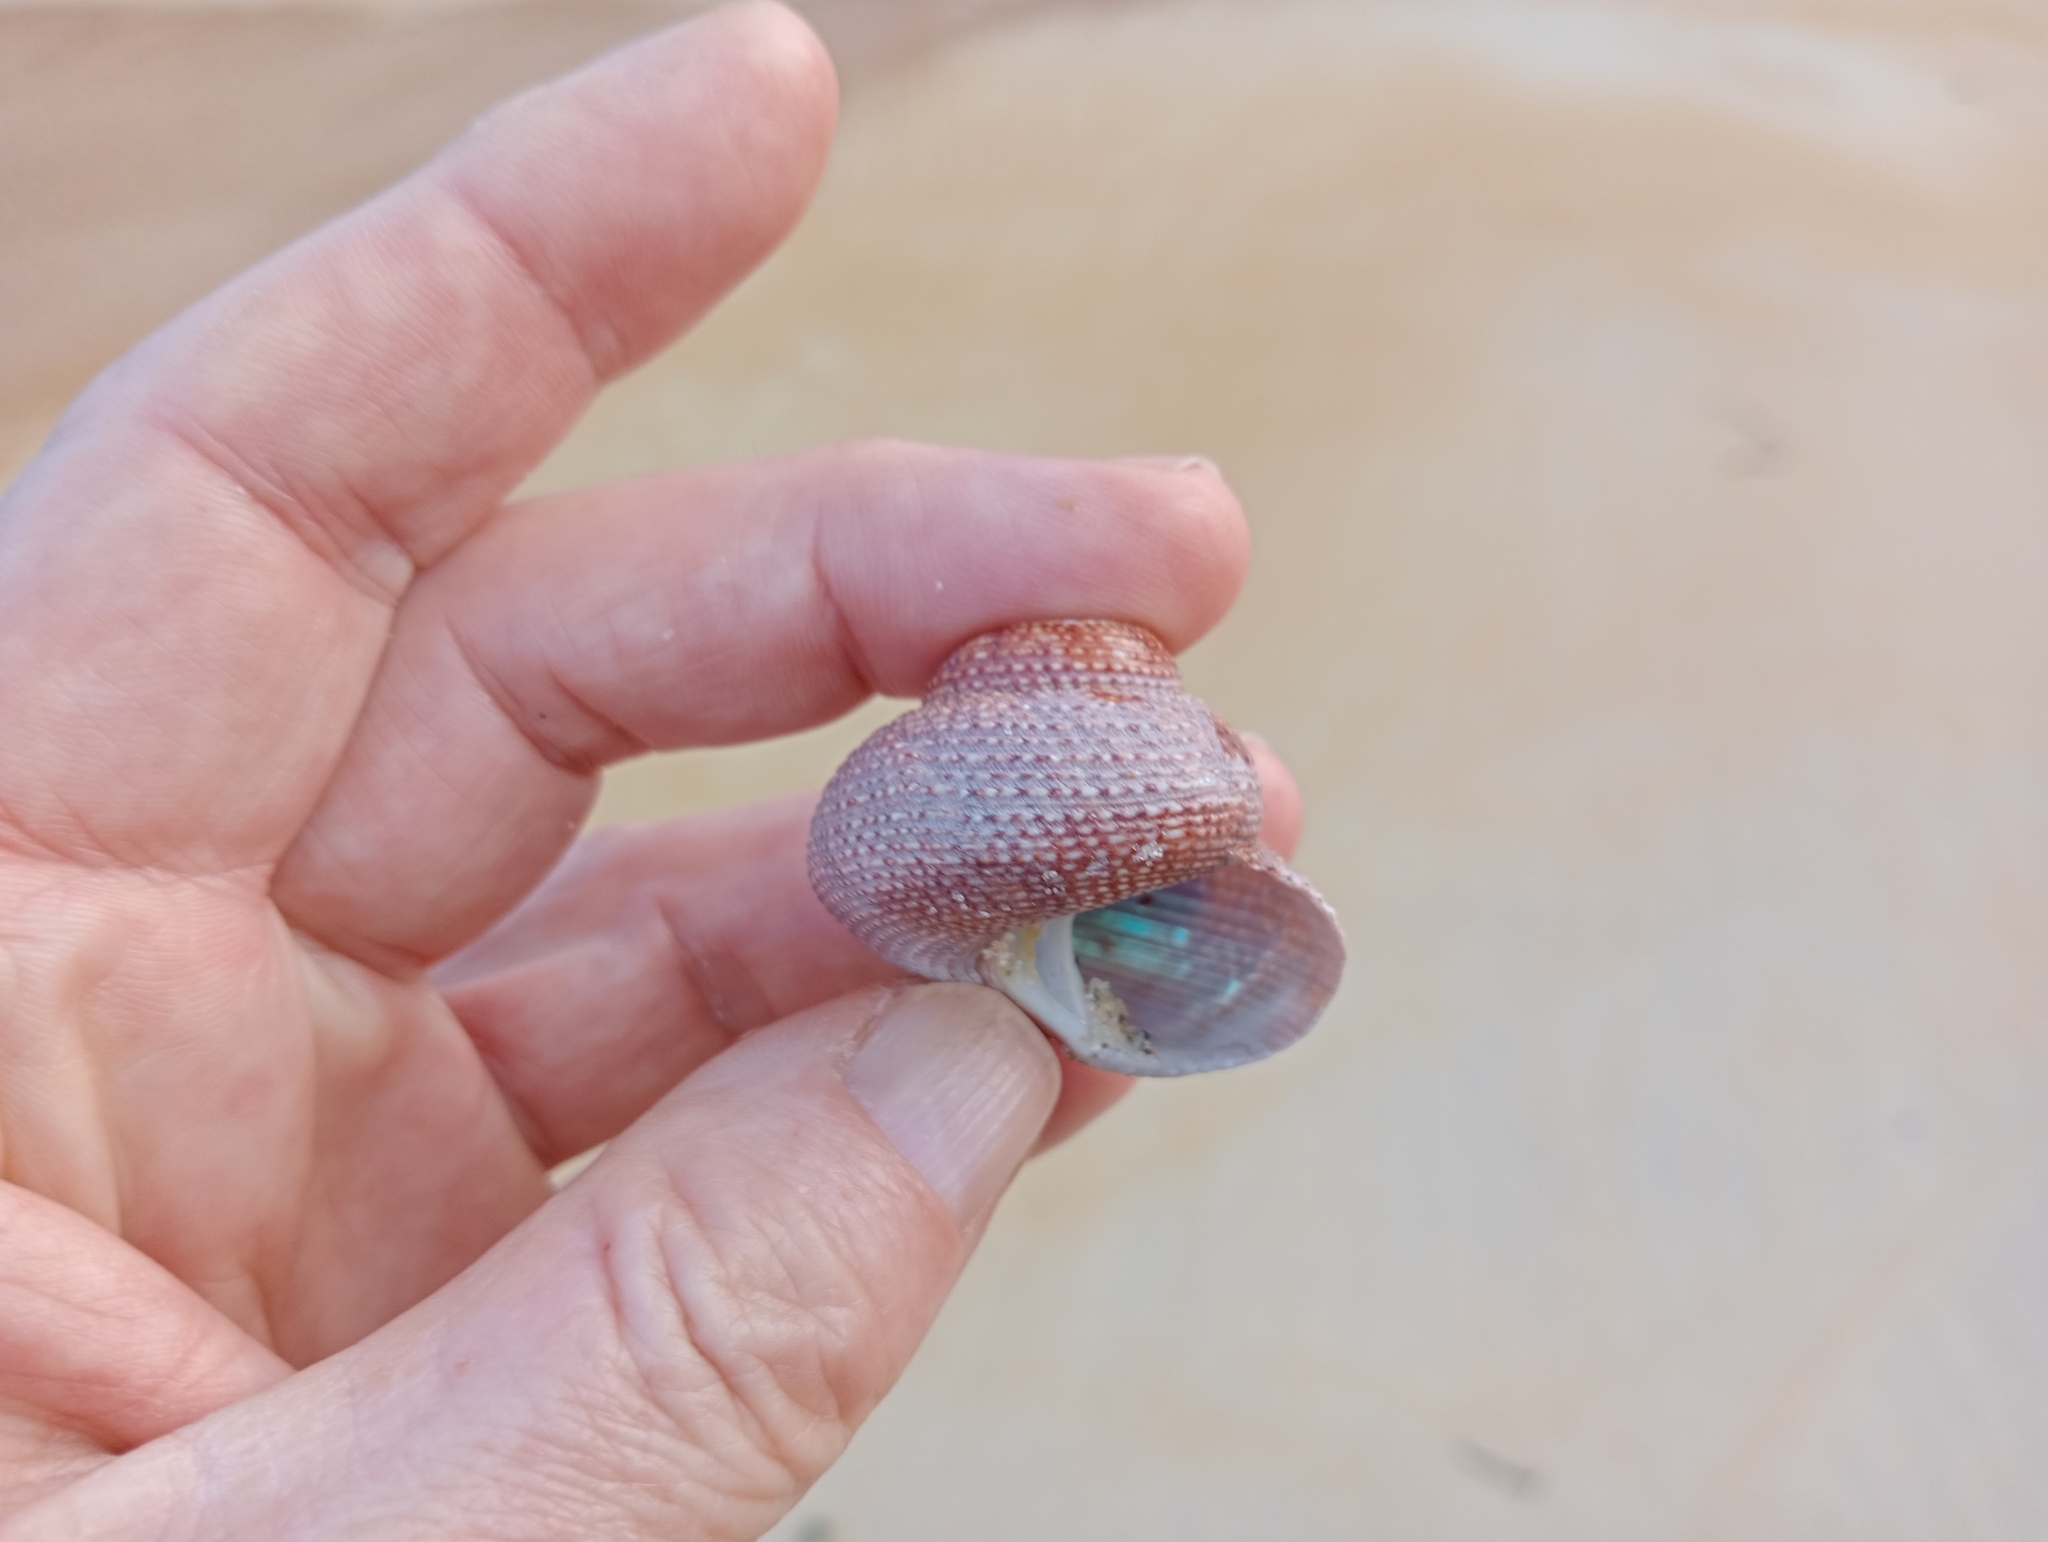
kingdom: Animalia
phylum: Mollusca
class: Gastropoda
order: Trochida
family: Calliostomatidae
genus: Maurea
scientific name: Maurea punctulata
